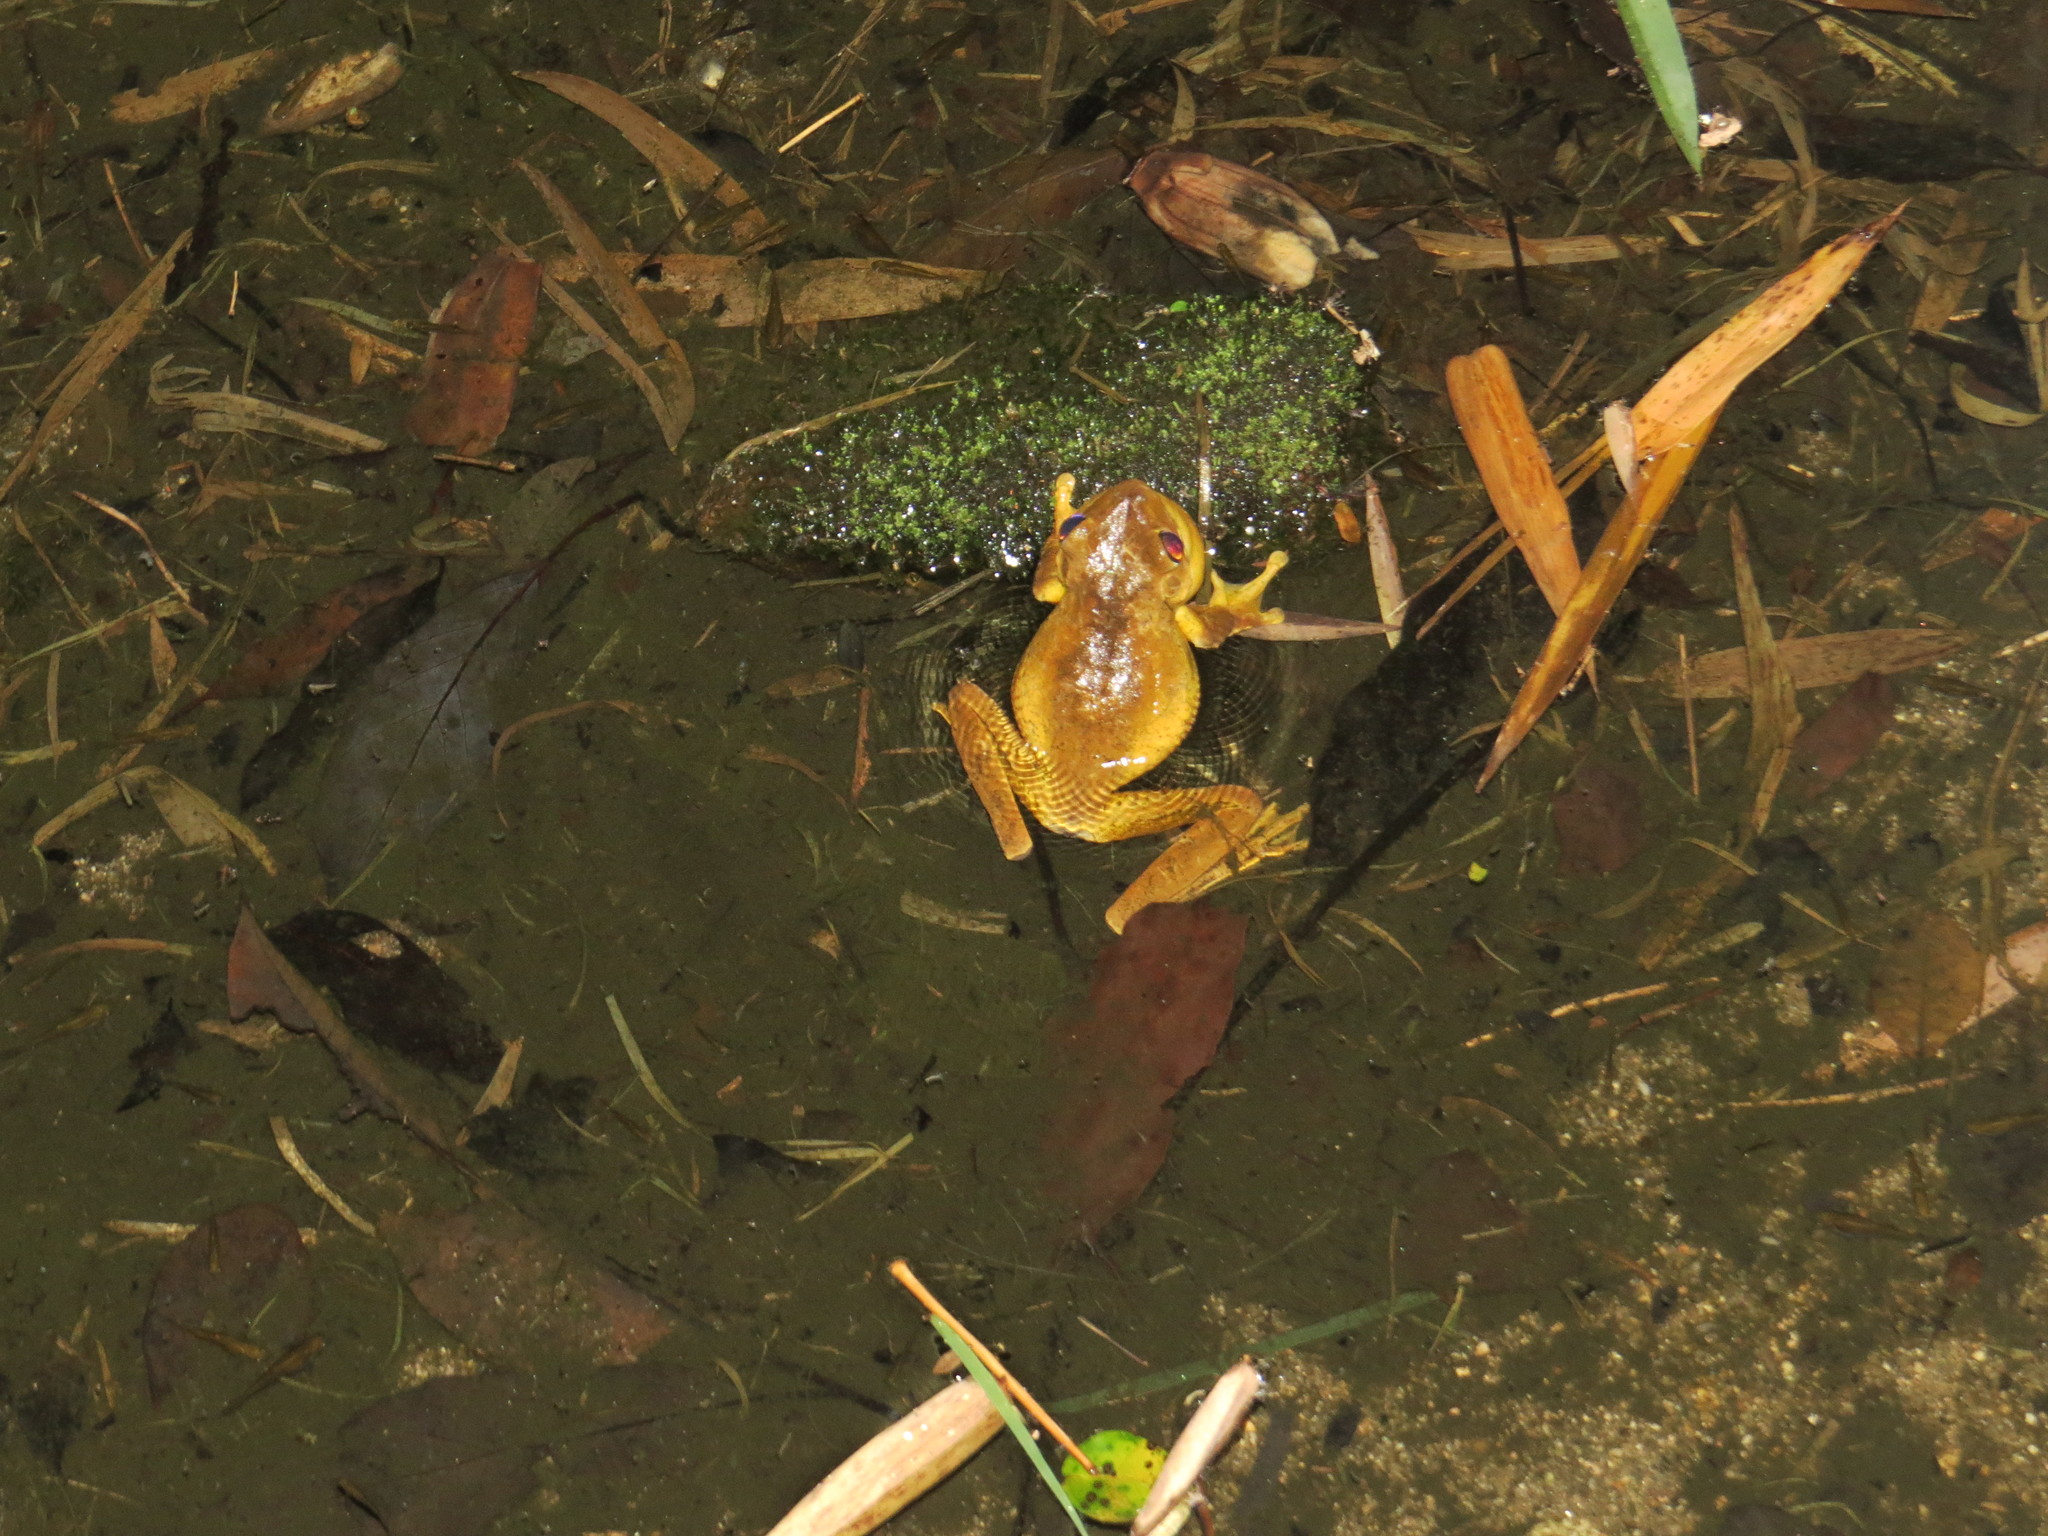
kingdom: Animalia
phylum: Chordata
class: Amphibia
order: Anura
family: Hylidae
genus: Boana
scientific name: Boana faber
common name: Blacksmith tree frog
